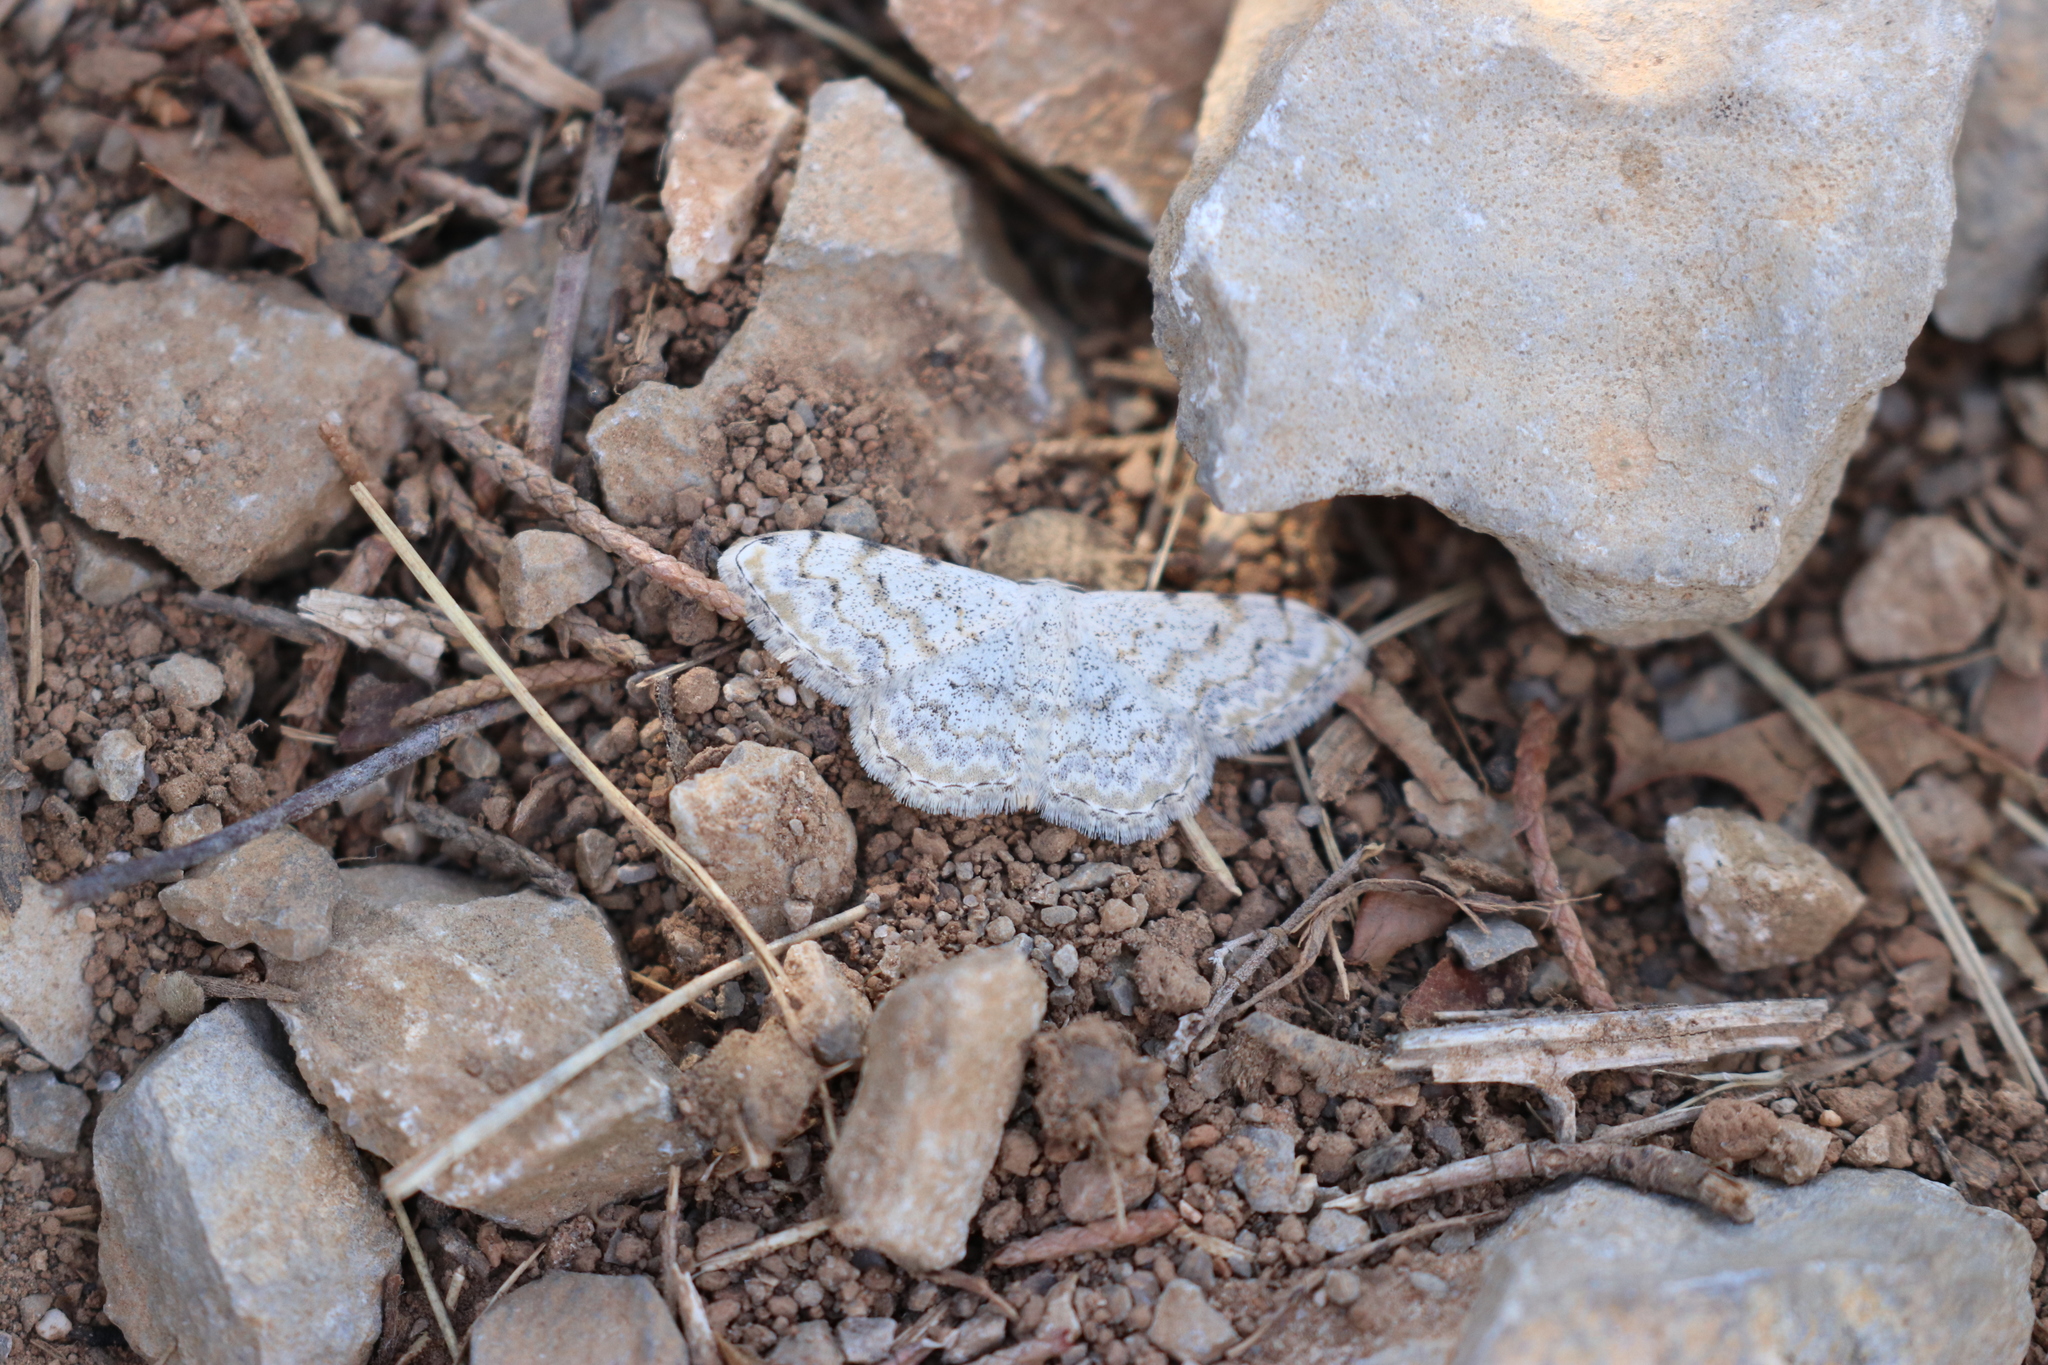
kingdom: Animalia
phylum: Arthropoda
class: Insecta
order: Lepidoptera
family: Geometridae
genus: Scopula
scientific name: Scopula submutata
